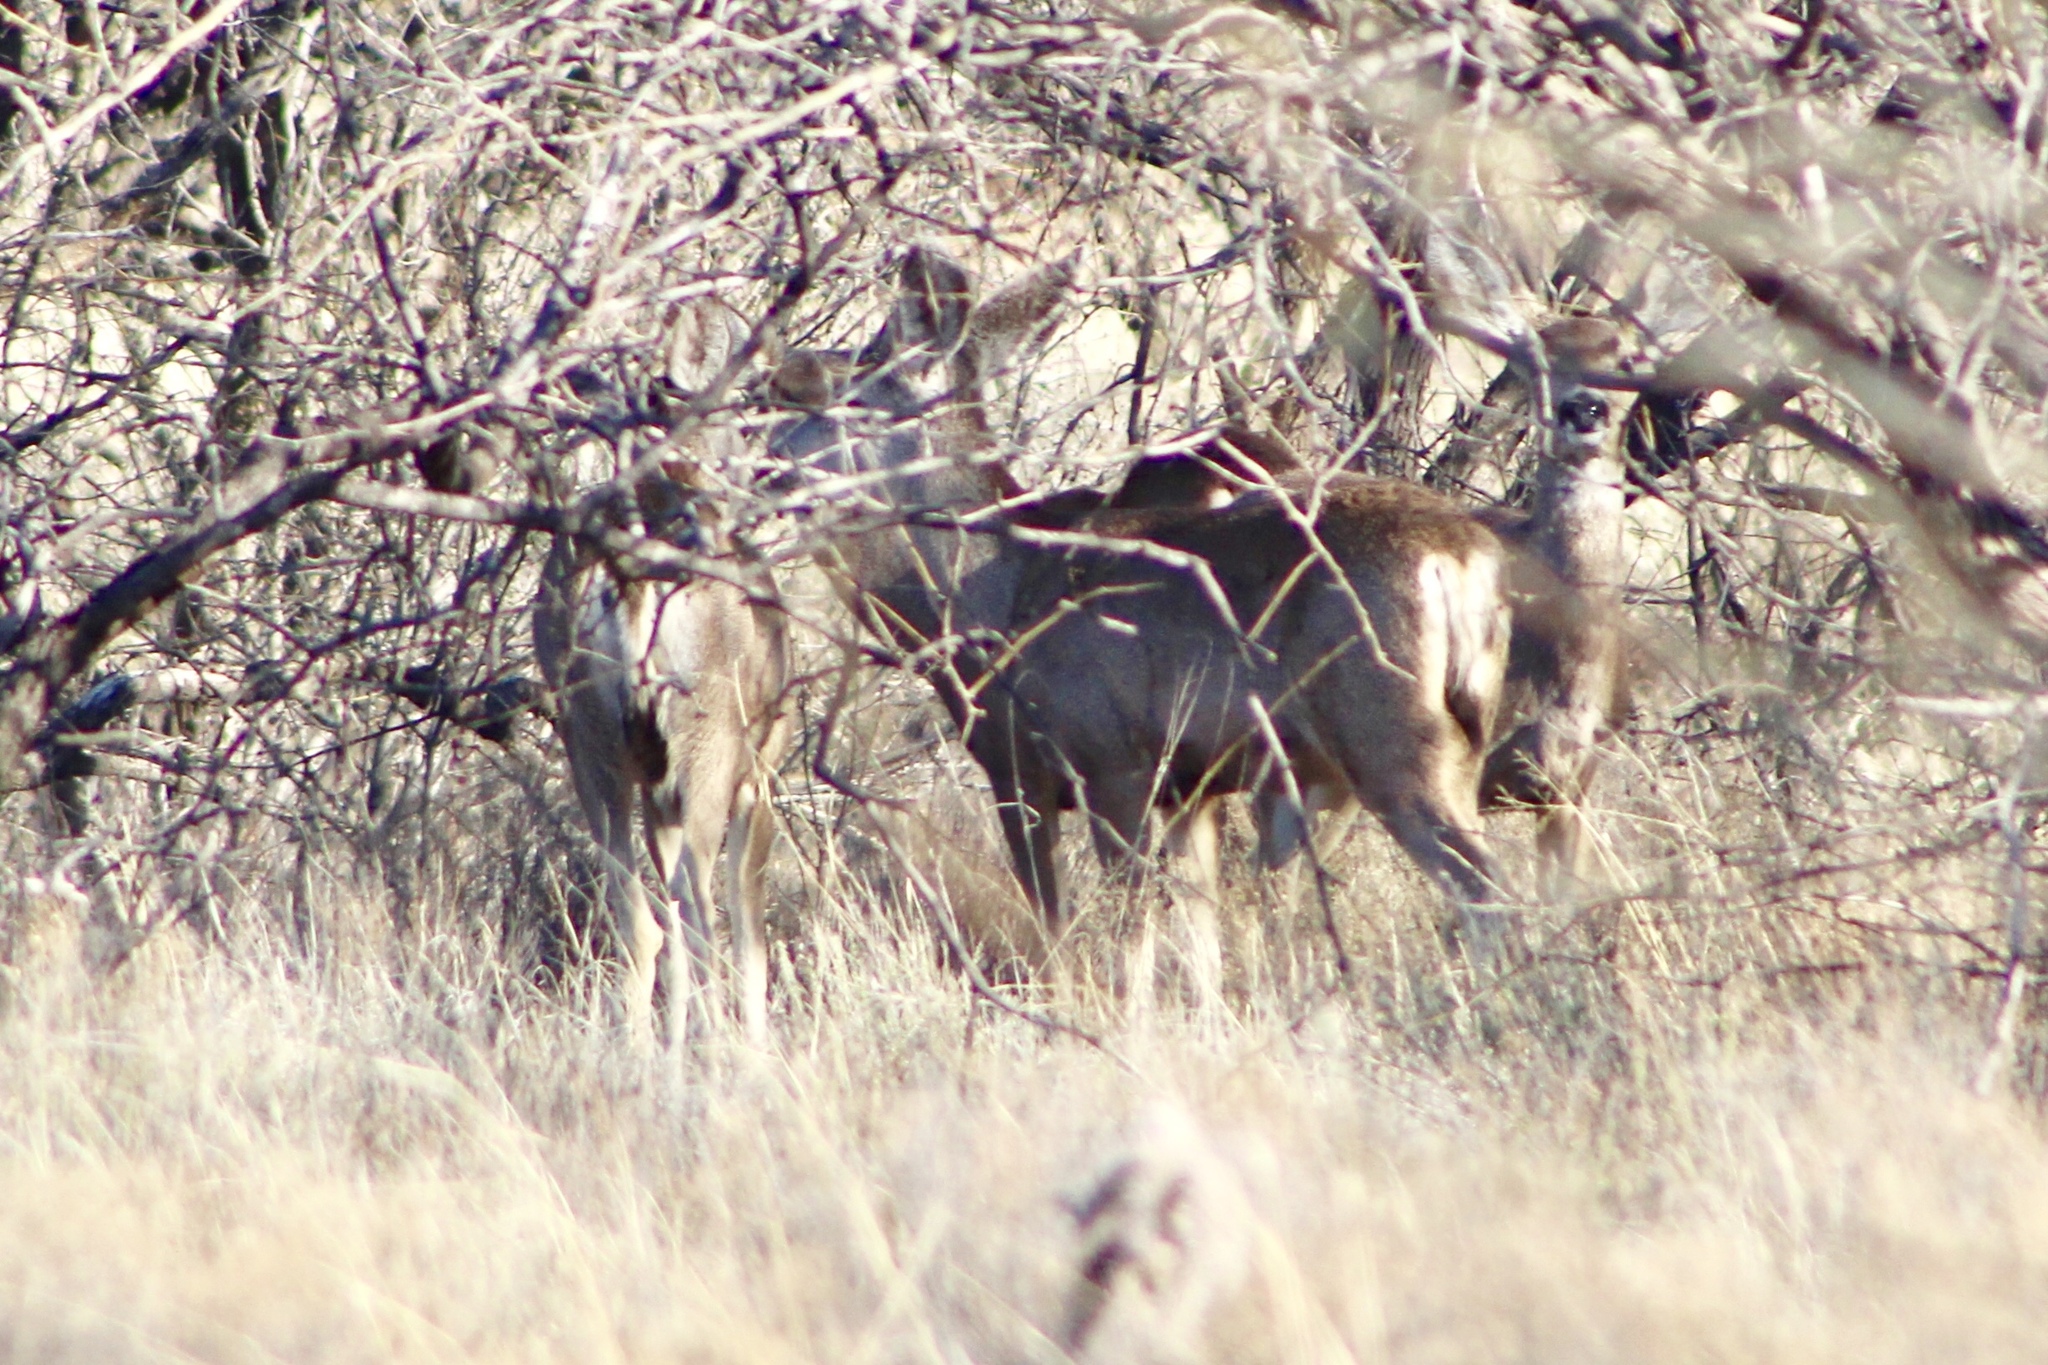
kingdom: Animalia
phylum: Chordata
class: Mammalia
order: Artiodactyla
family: Cervidae
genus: Odocoileus
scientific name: Odocoileus hemionus
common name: Mule deer
